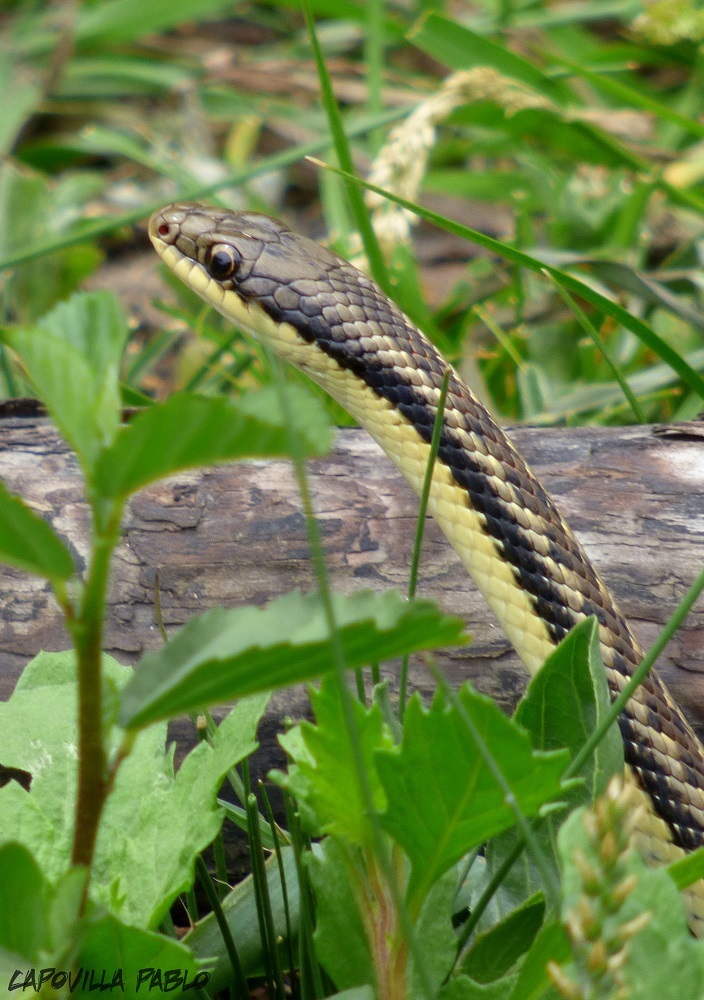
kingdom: Animalia
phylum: Chordata
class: Squamata
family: Colubridae
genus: Erythrolamprus
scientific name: Erythrolamprus sagittifer
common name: Arrow ground snake
